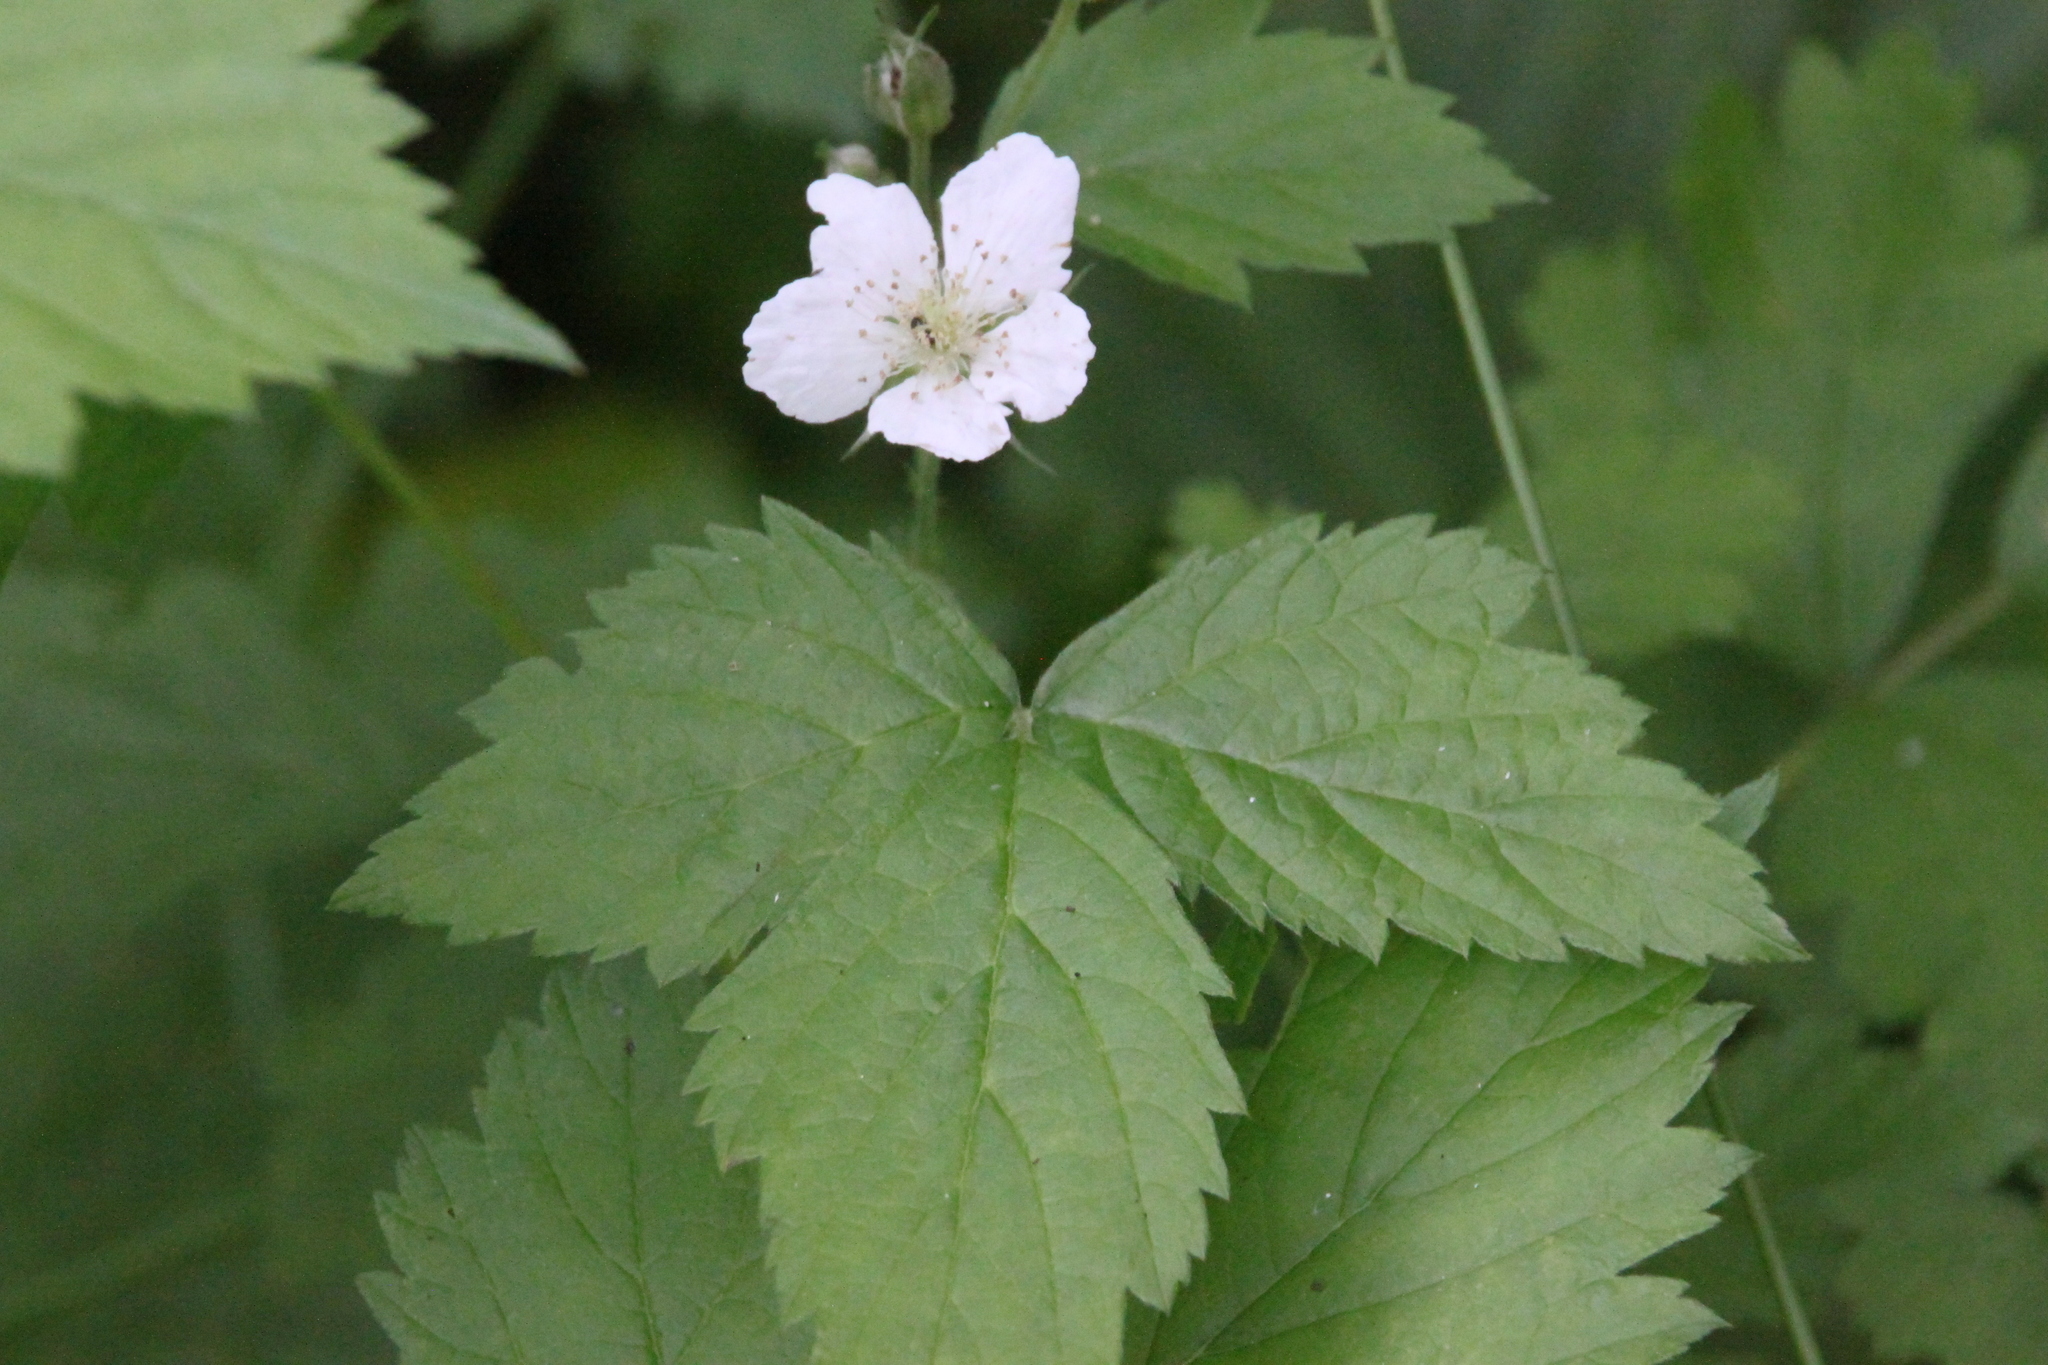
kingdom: Plantae
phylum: Tracheophyta
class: Magnoliopsida
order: Rosales
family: Rosaceae
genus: Rubus
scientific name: Rubus caesius
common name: Dewberry
